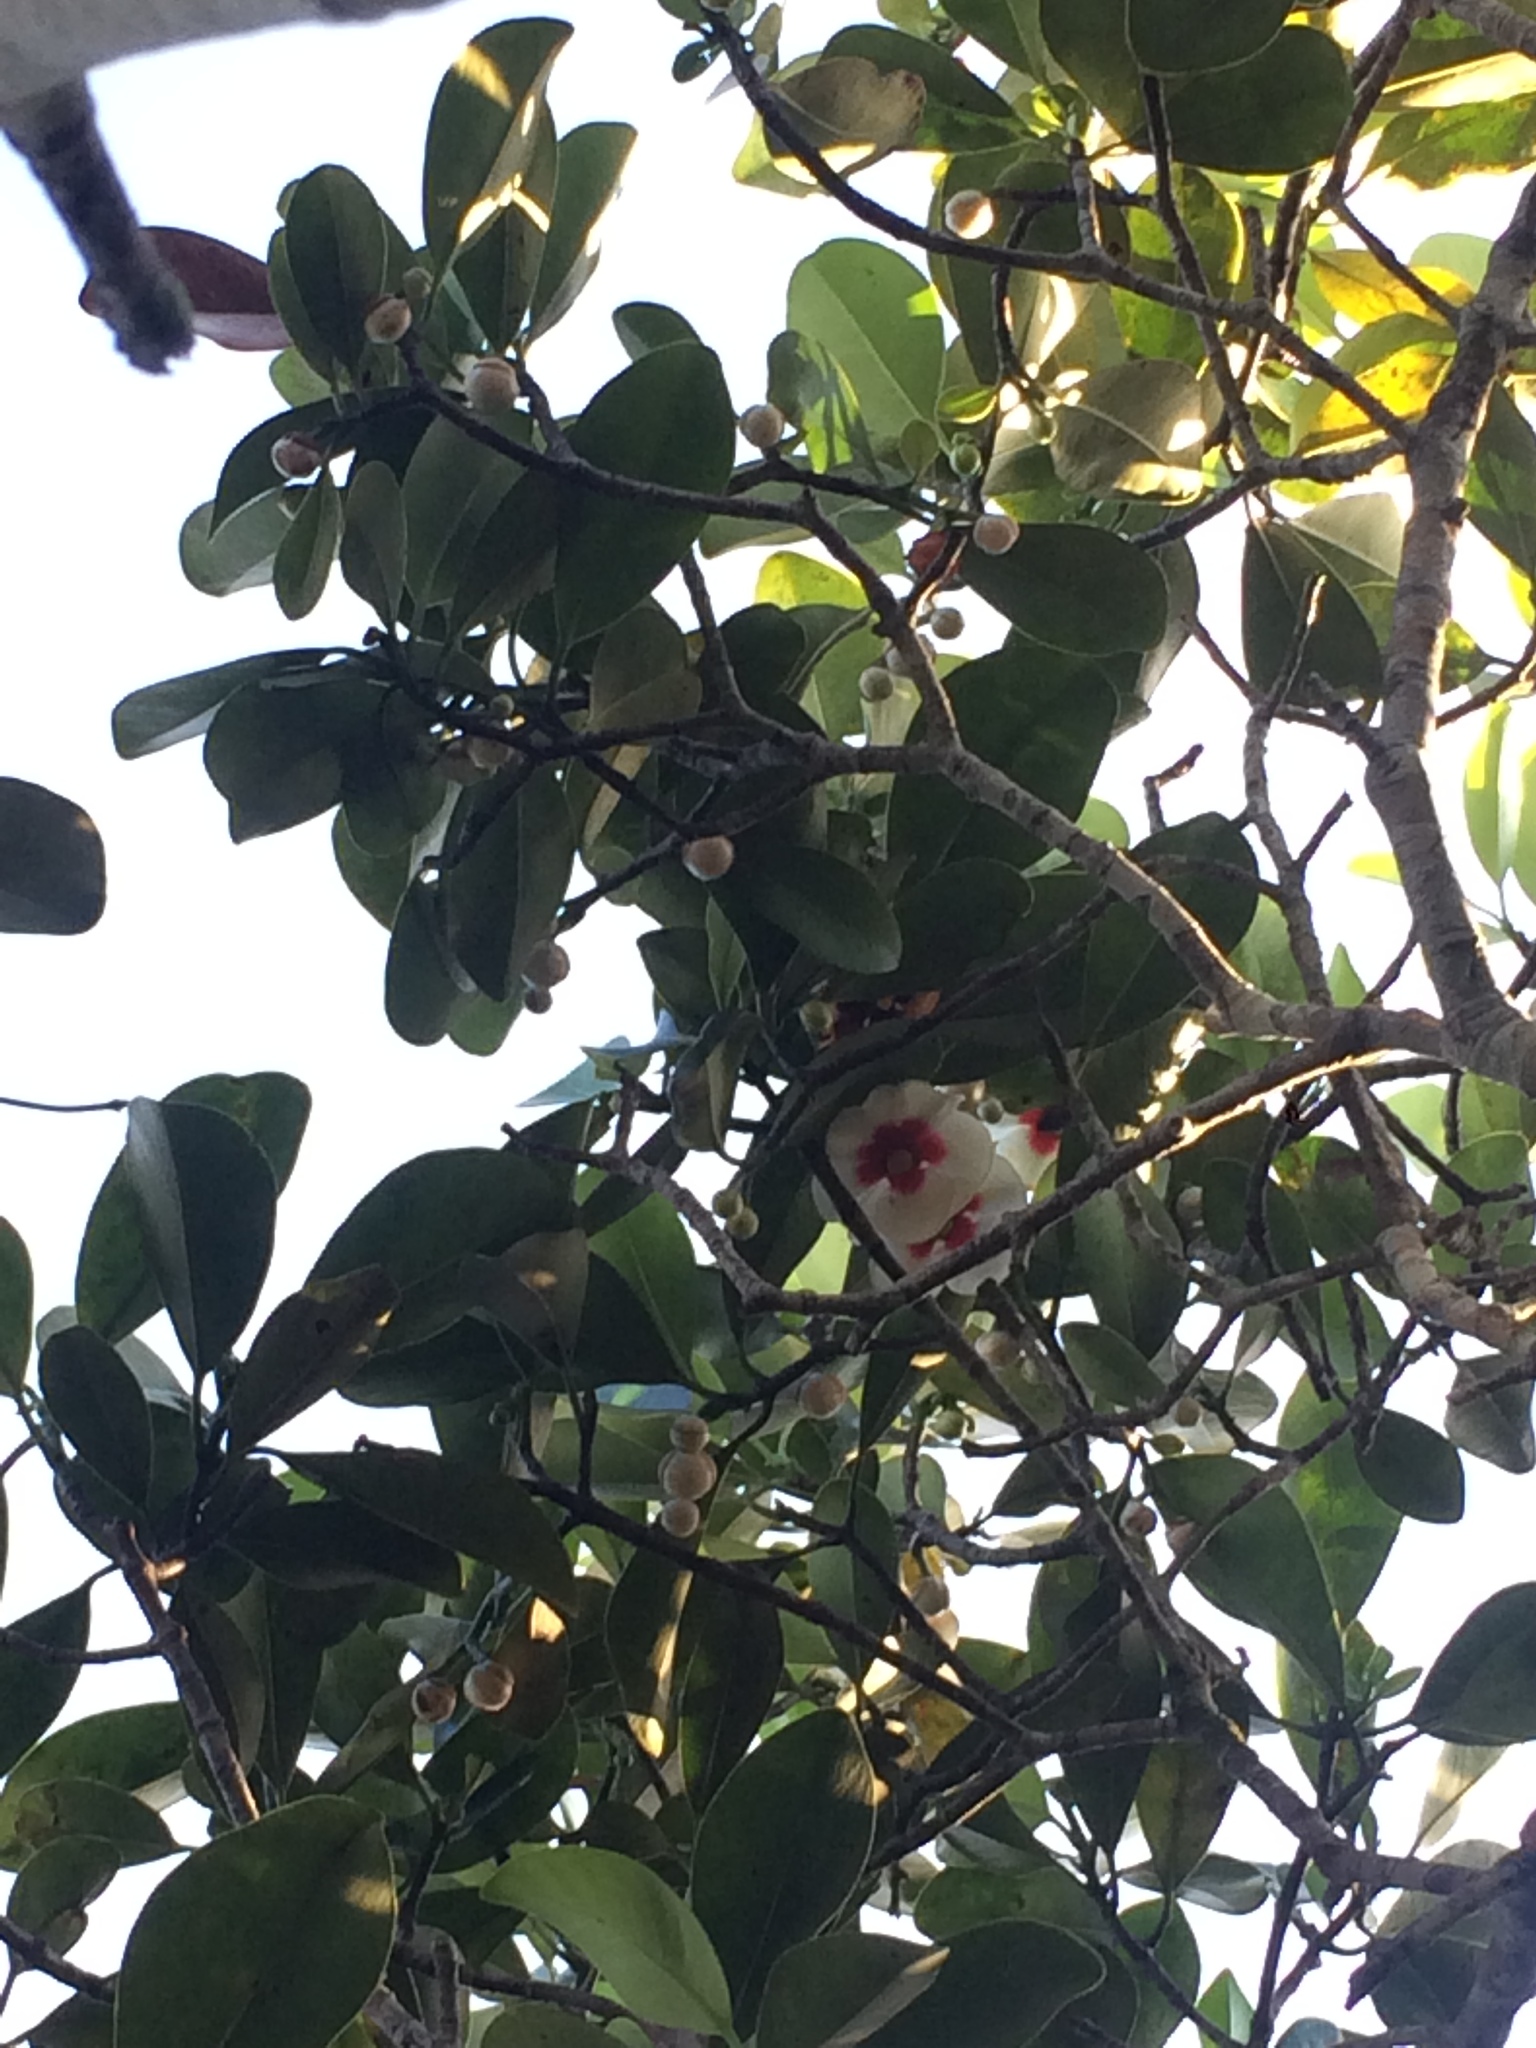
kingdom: Plantae
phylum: Tracheophyta
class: Magnoliopsida
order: Malpighiales
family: Clusiaceae
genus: Clusia
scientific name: Clusia nemorosa
